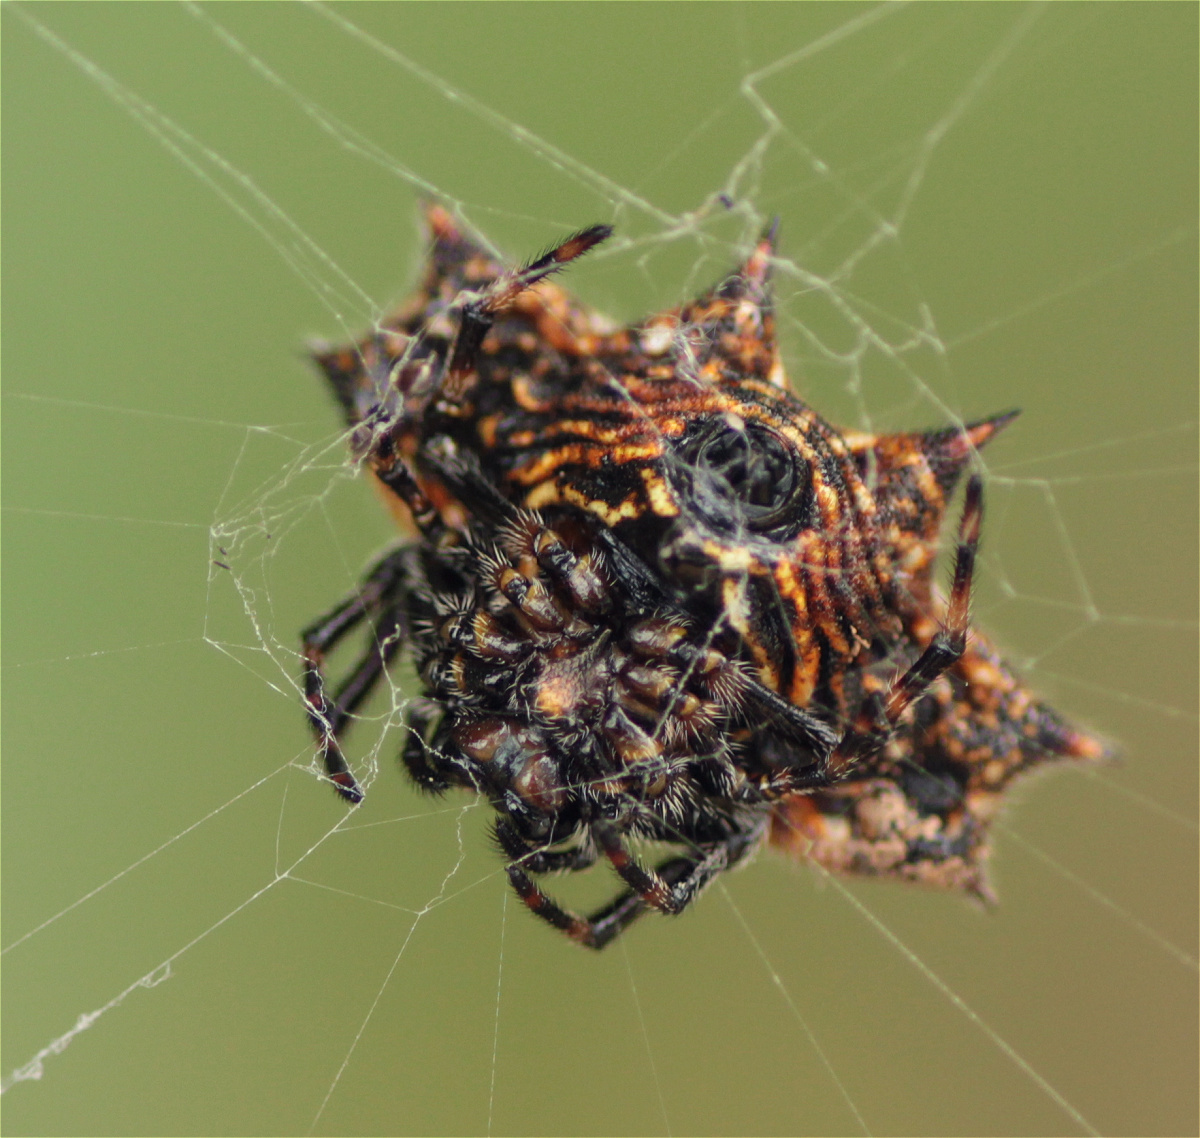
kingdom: Animalia
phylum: Arthropoda
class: Arachnida
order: Araneae
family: Araneidae
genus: Gasteracantha
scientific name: Gasteracantha cancriformis
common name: Orb weavers
